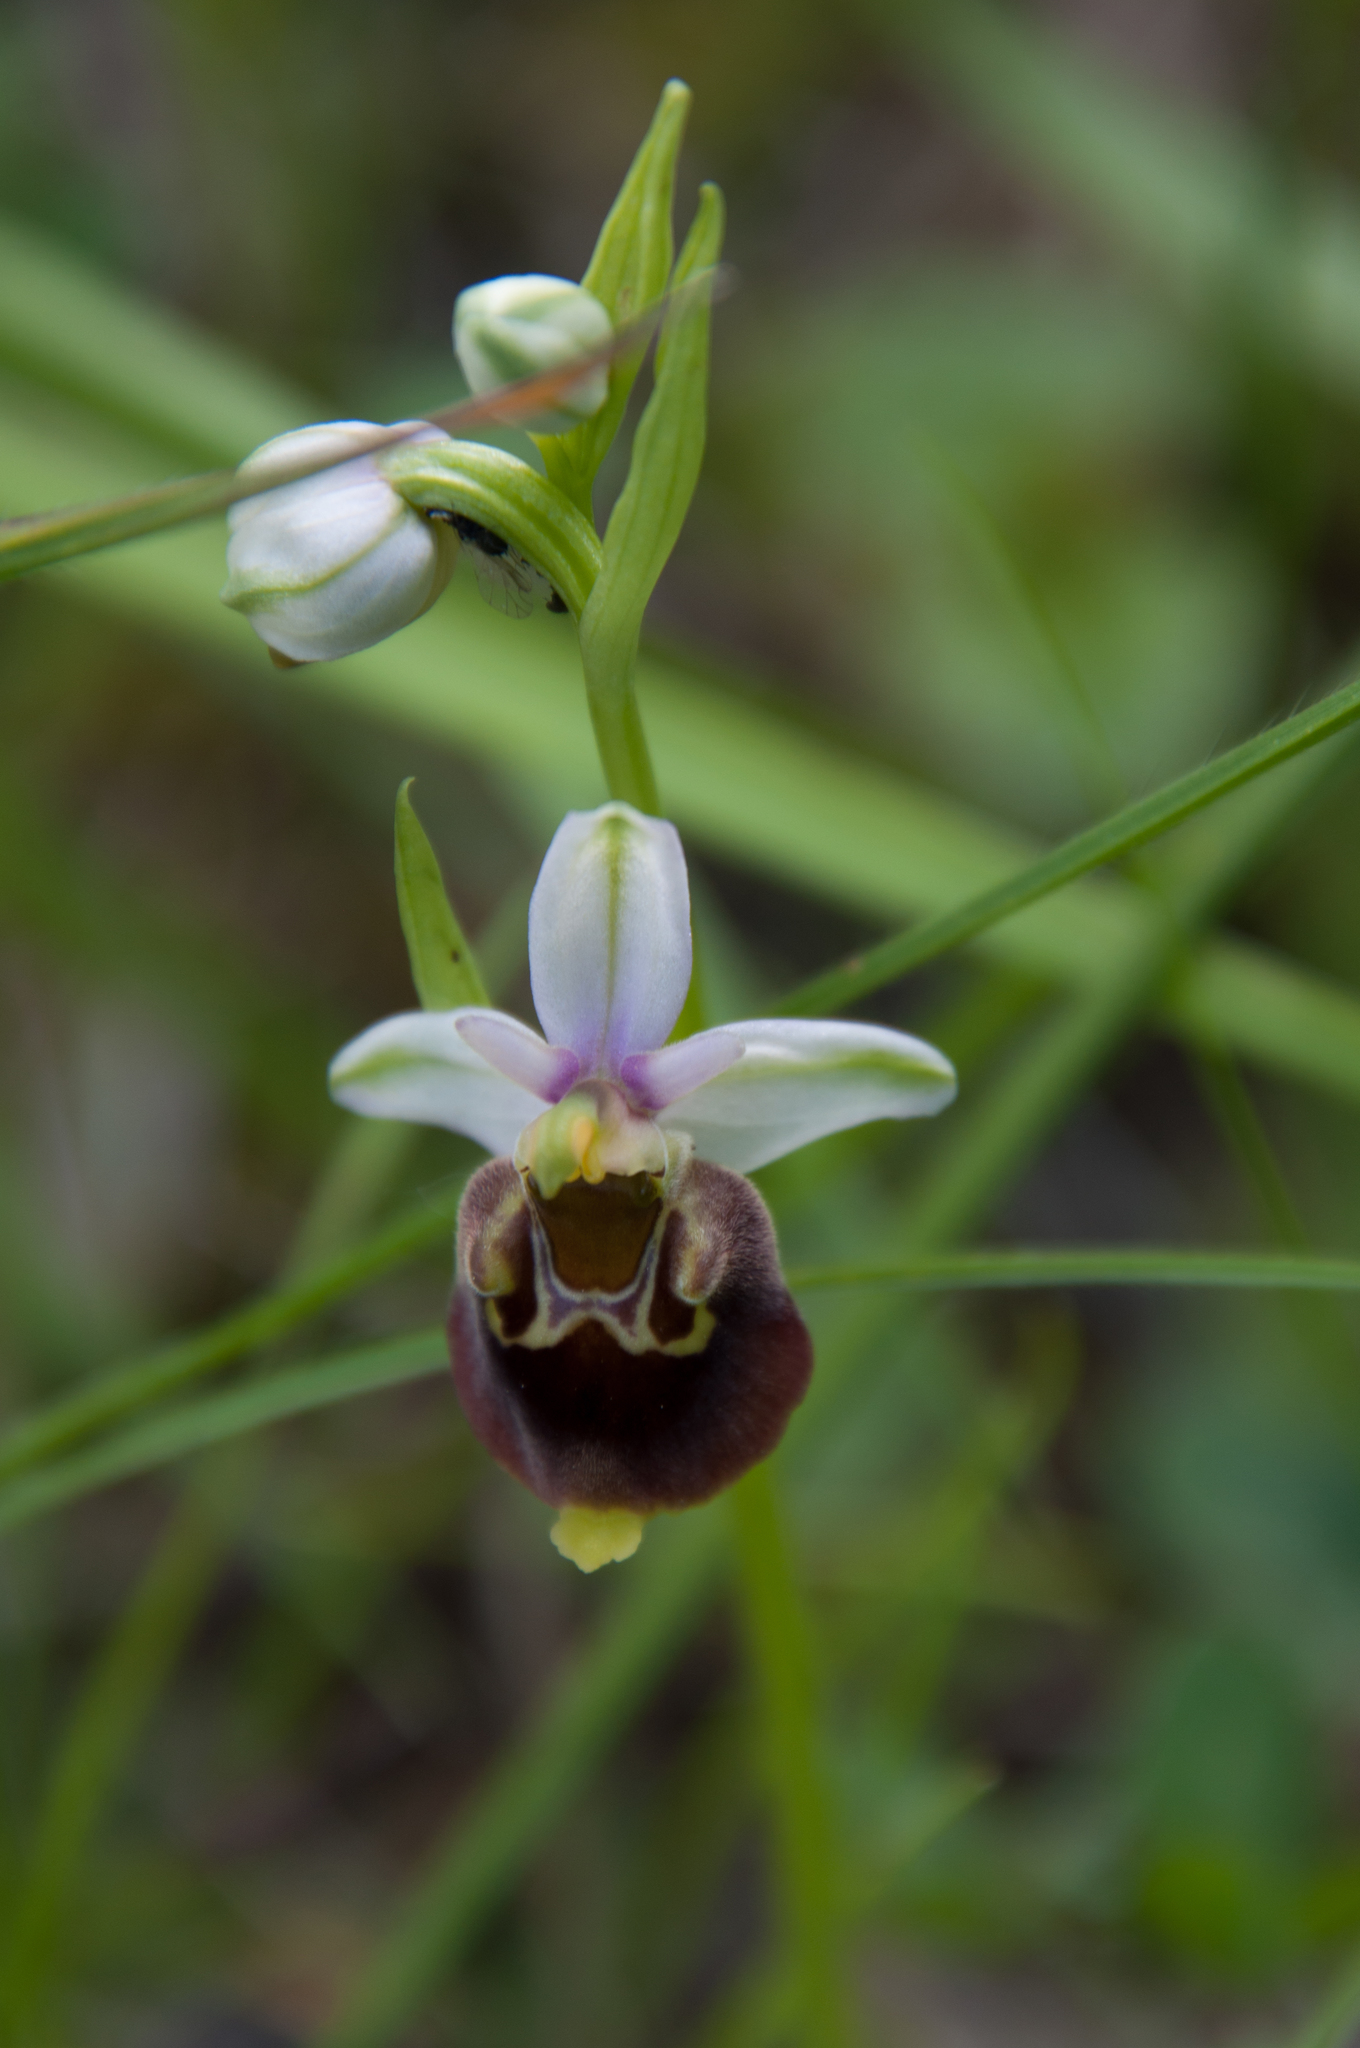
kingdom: Plantae
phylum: Tracheophyta
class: Liliopsida
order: Asparagales
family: Orchidaceae
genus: Ophrys
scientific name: Ophrys holosericea
